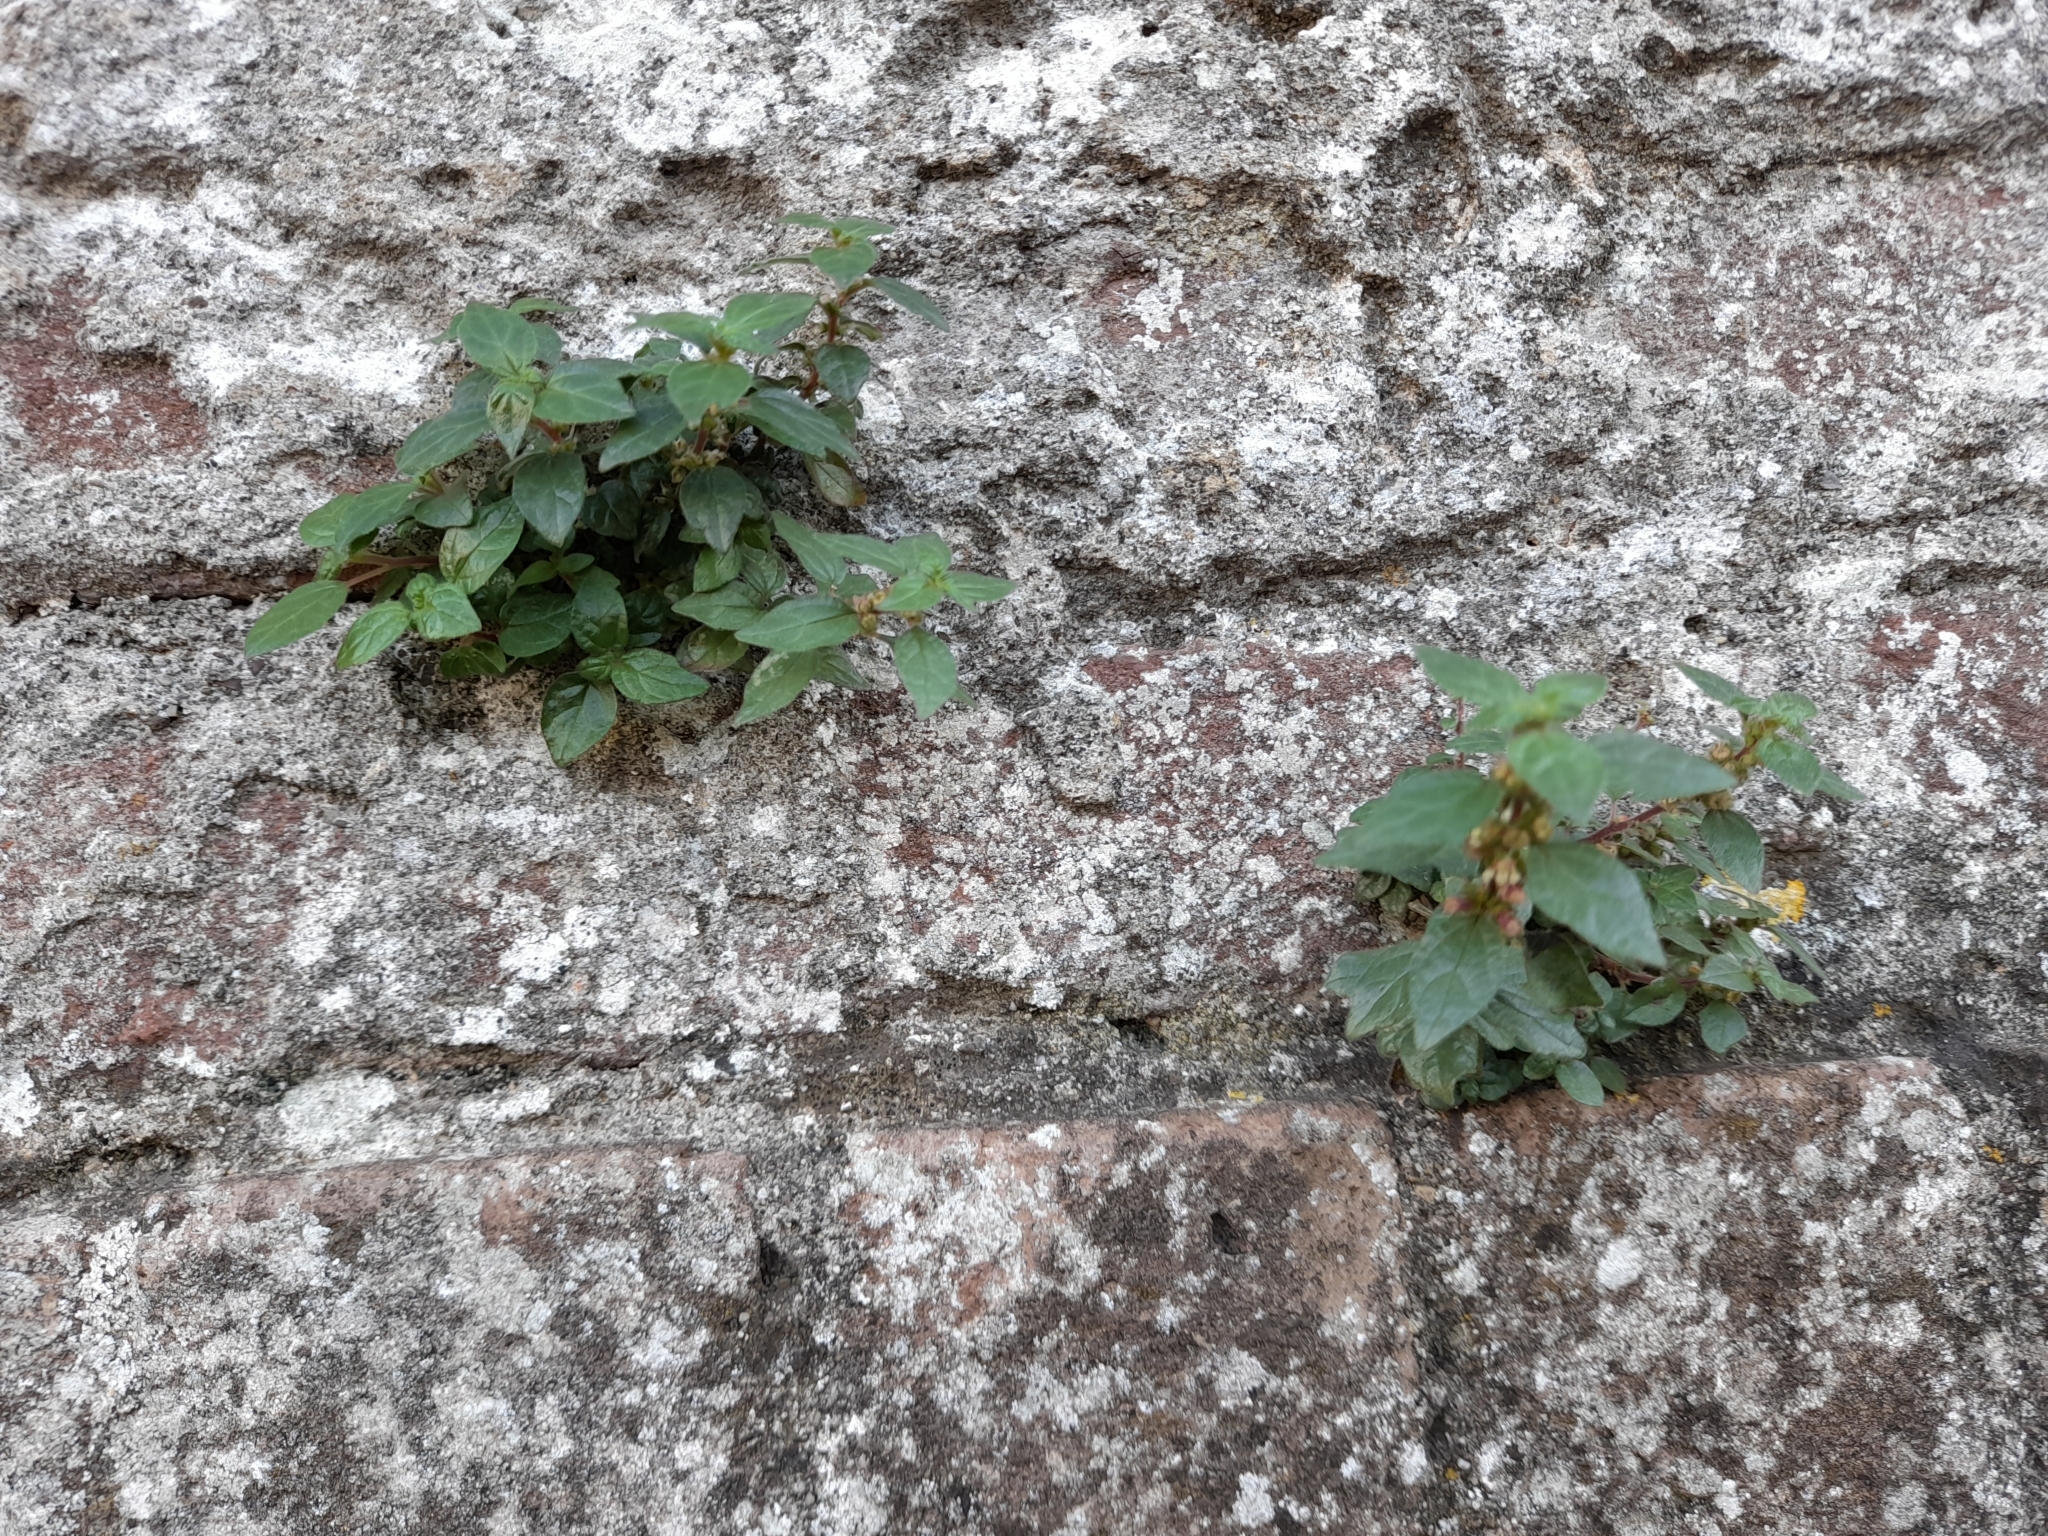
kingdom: Plantae
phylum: Tracheophyta
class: Magnoliopsida
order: Rosales
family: Urticaceae
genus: Parietaria
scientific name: Parietaria judaica
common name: Pellitory-of-the-wall
